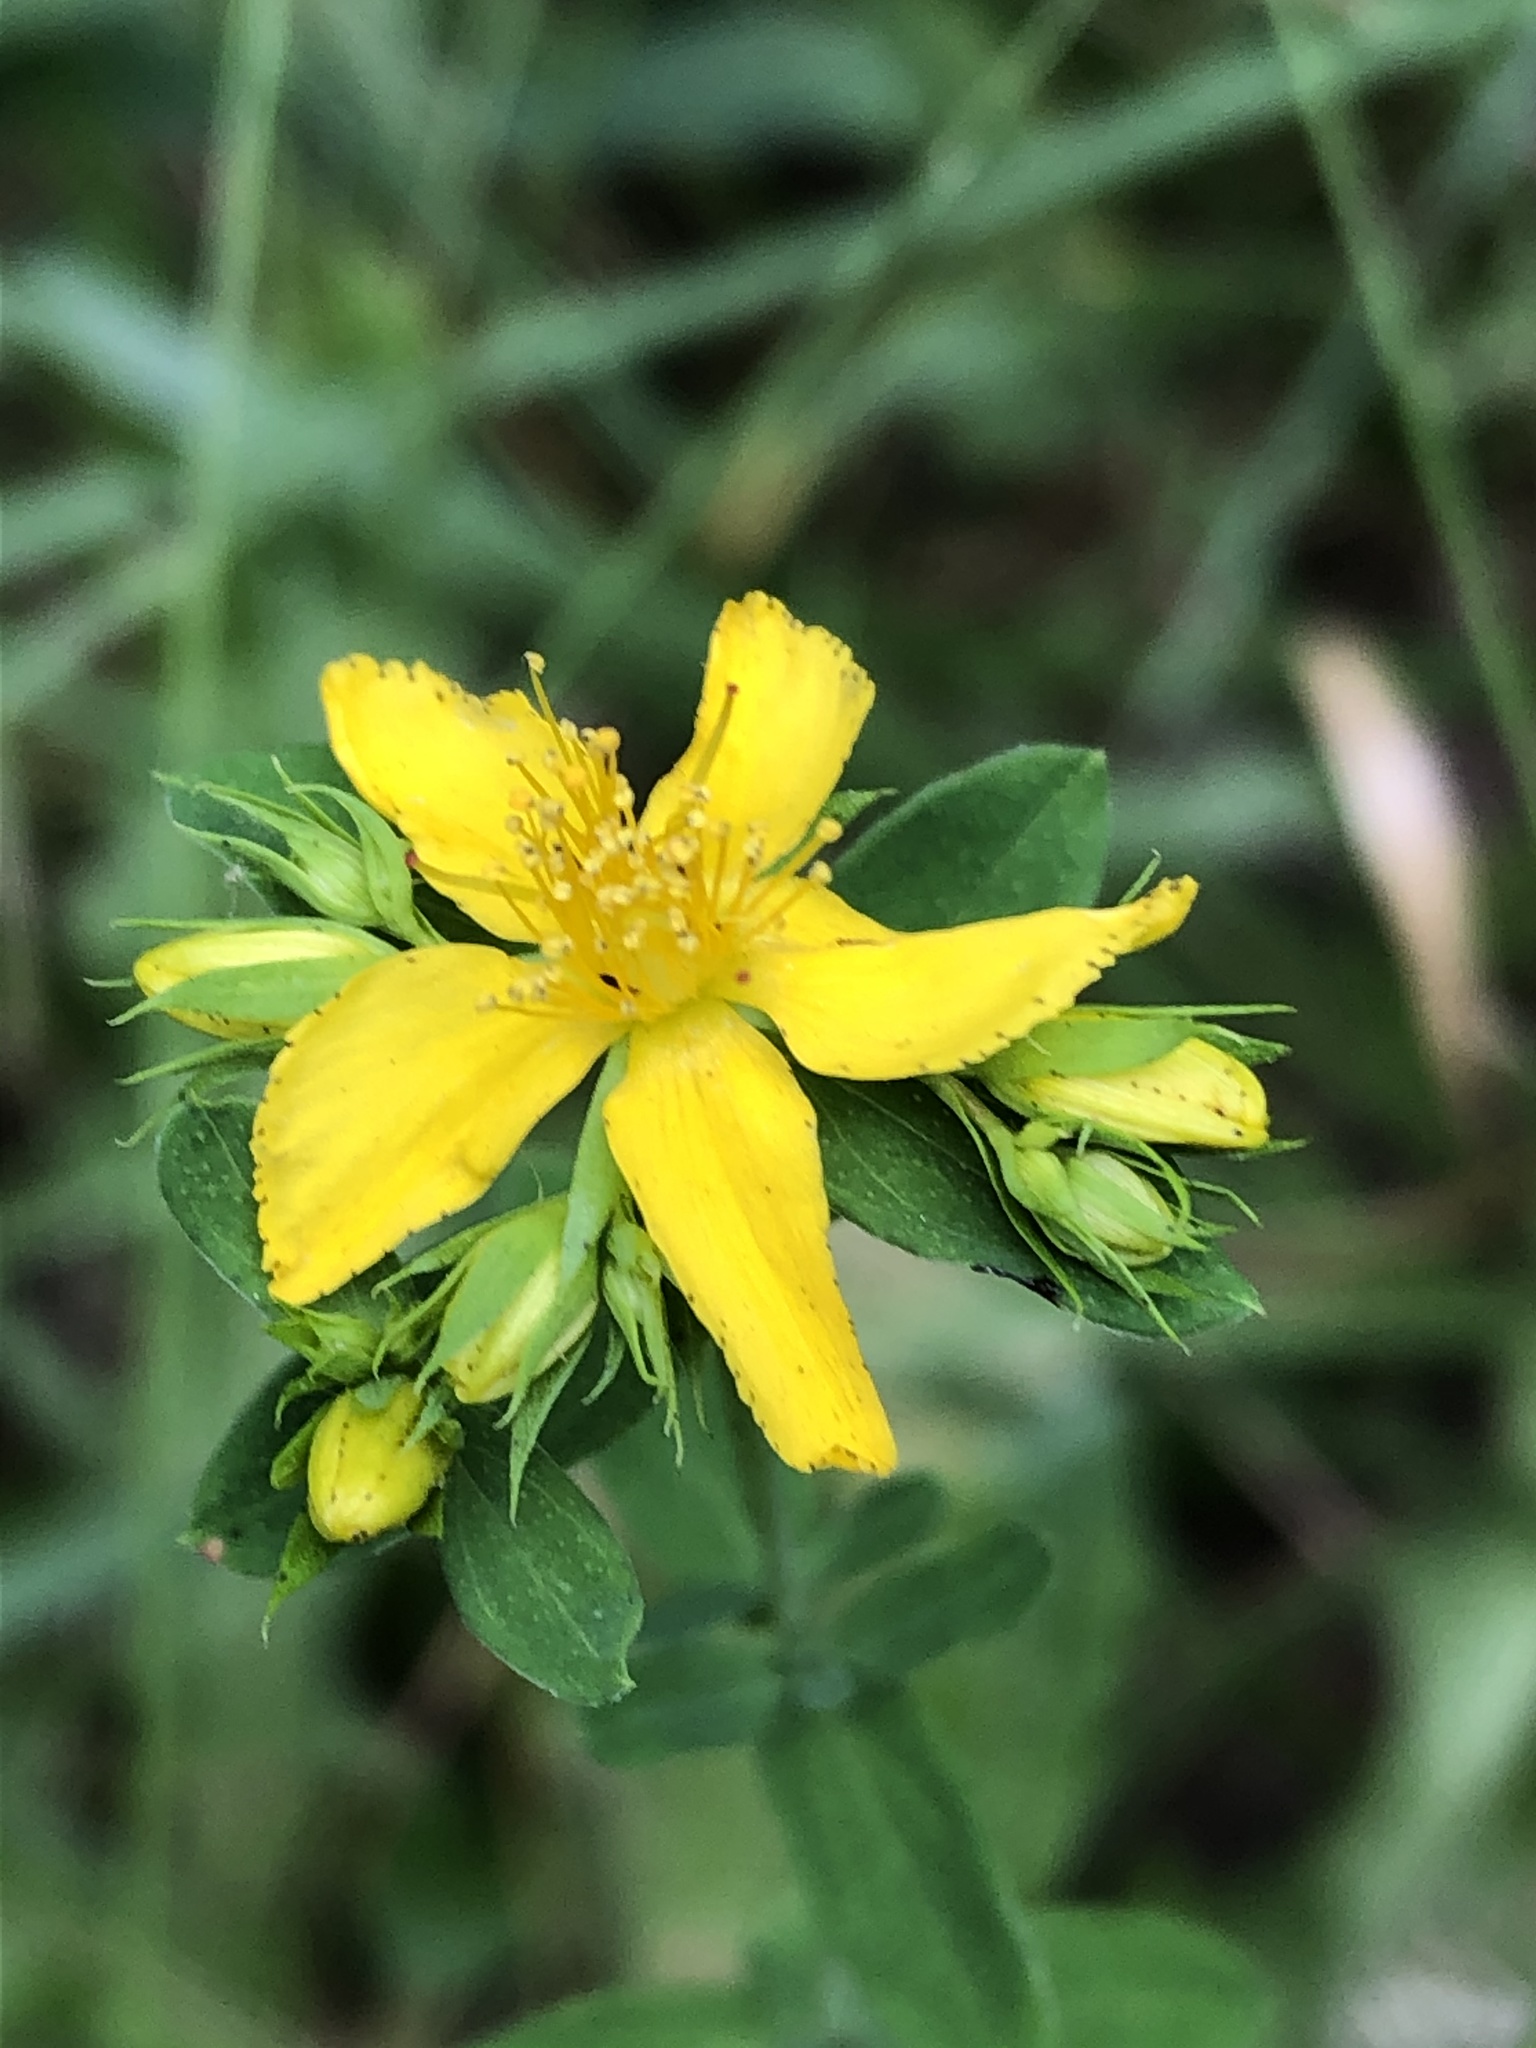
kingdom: Plantae
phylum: Tracheophyta
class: Magnoliopsida
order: Malpighiales
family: Hypericaceae
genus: Hypericum
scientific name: Hypericum perforatum
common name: Common st. johnswort
